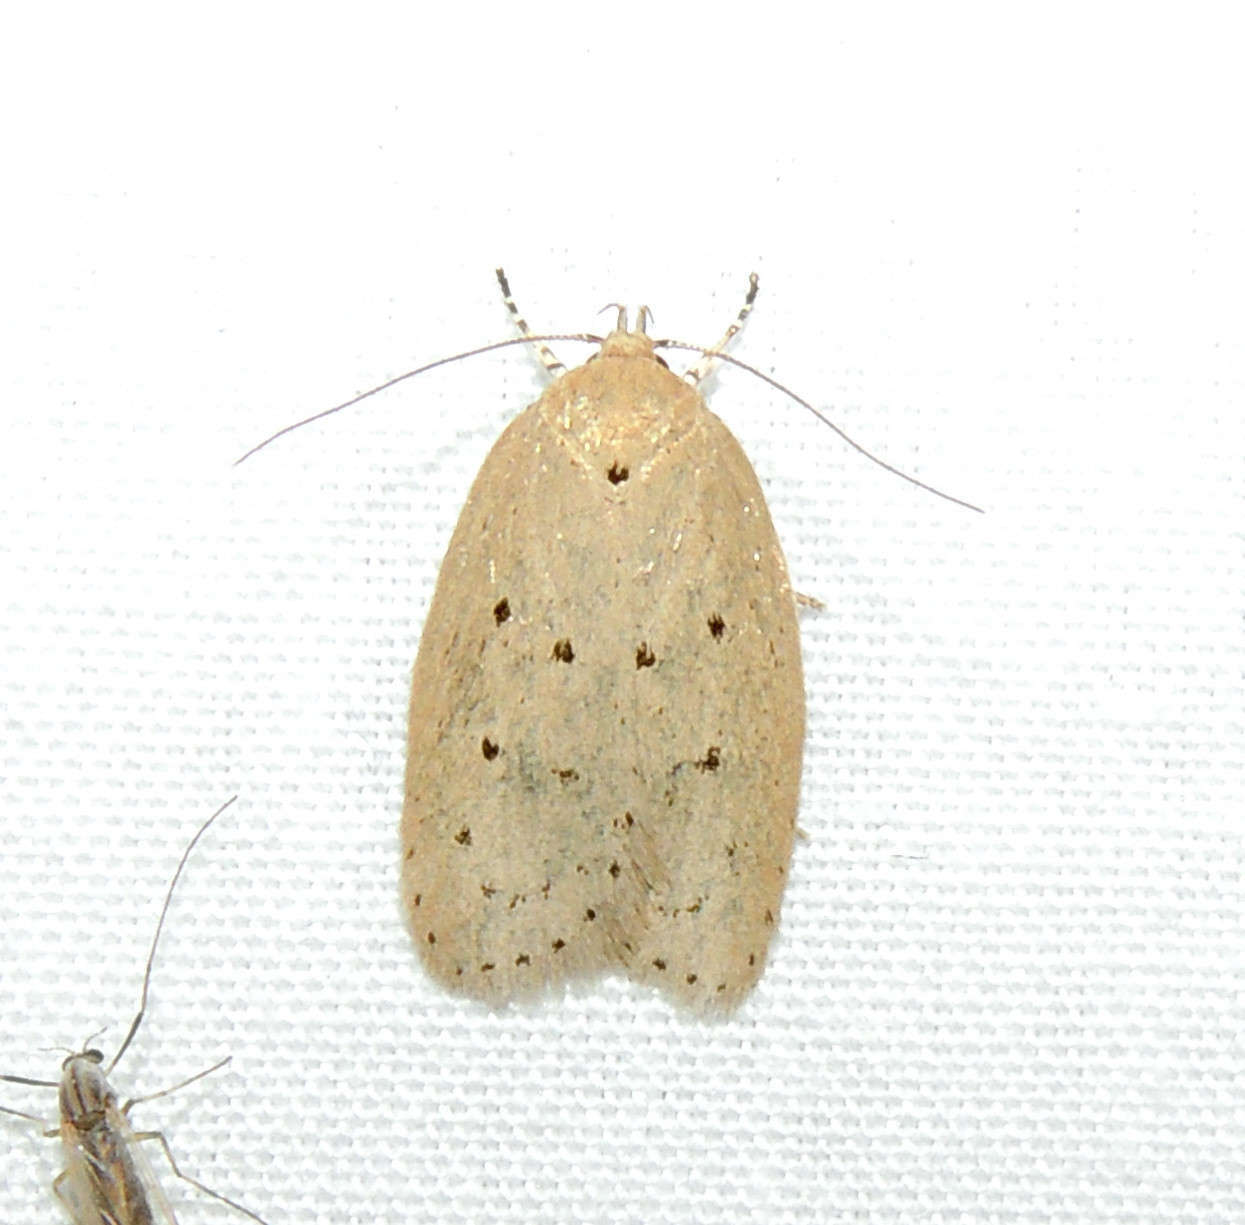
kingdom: Animalia
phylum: Arthropoda
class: Insecta
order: Lepidoptera
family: Oecophoridae
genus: Ironopolia
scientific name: Ironopolia sobriella
